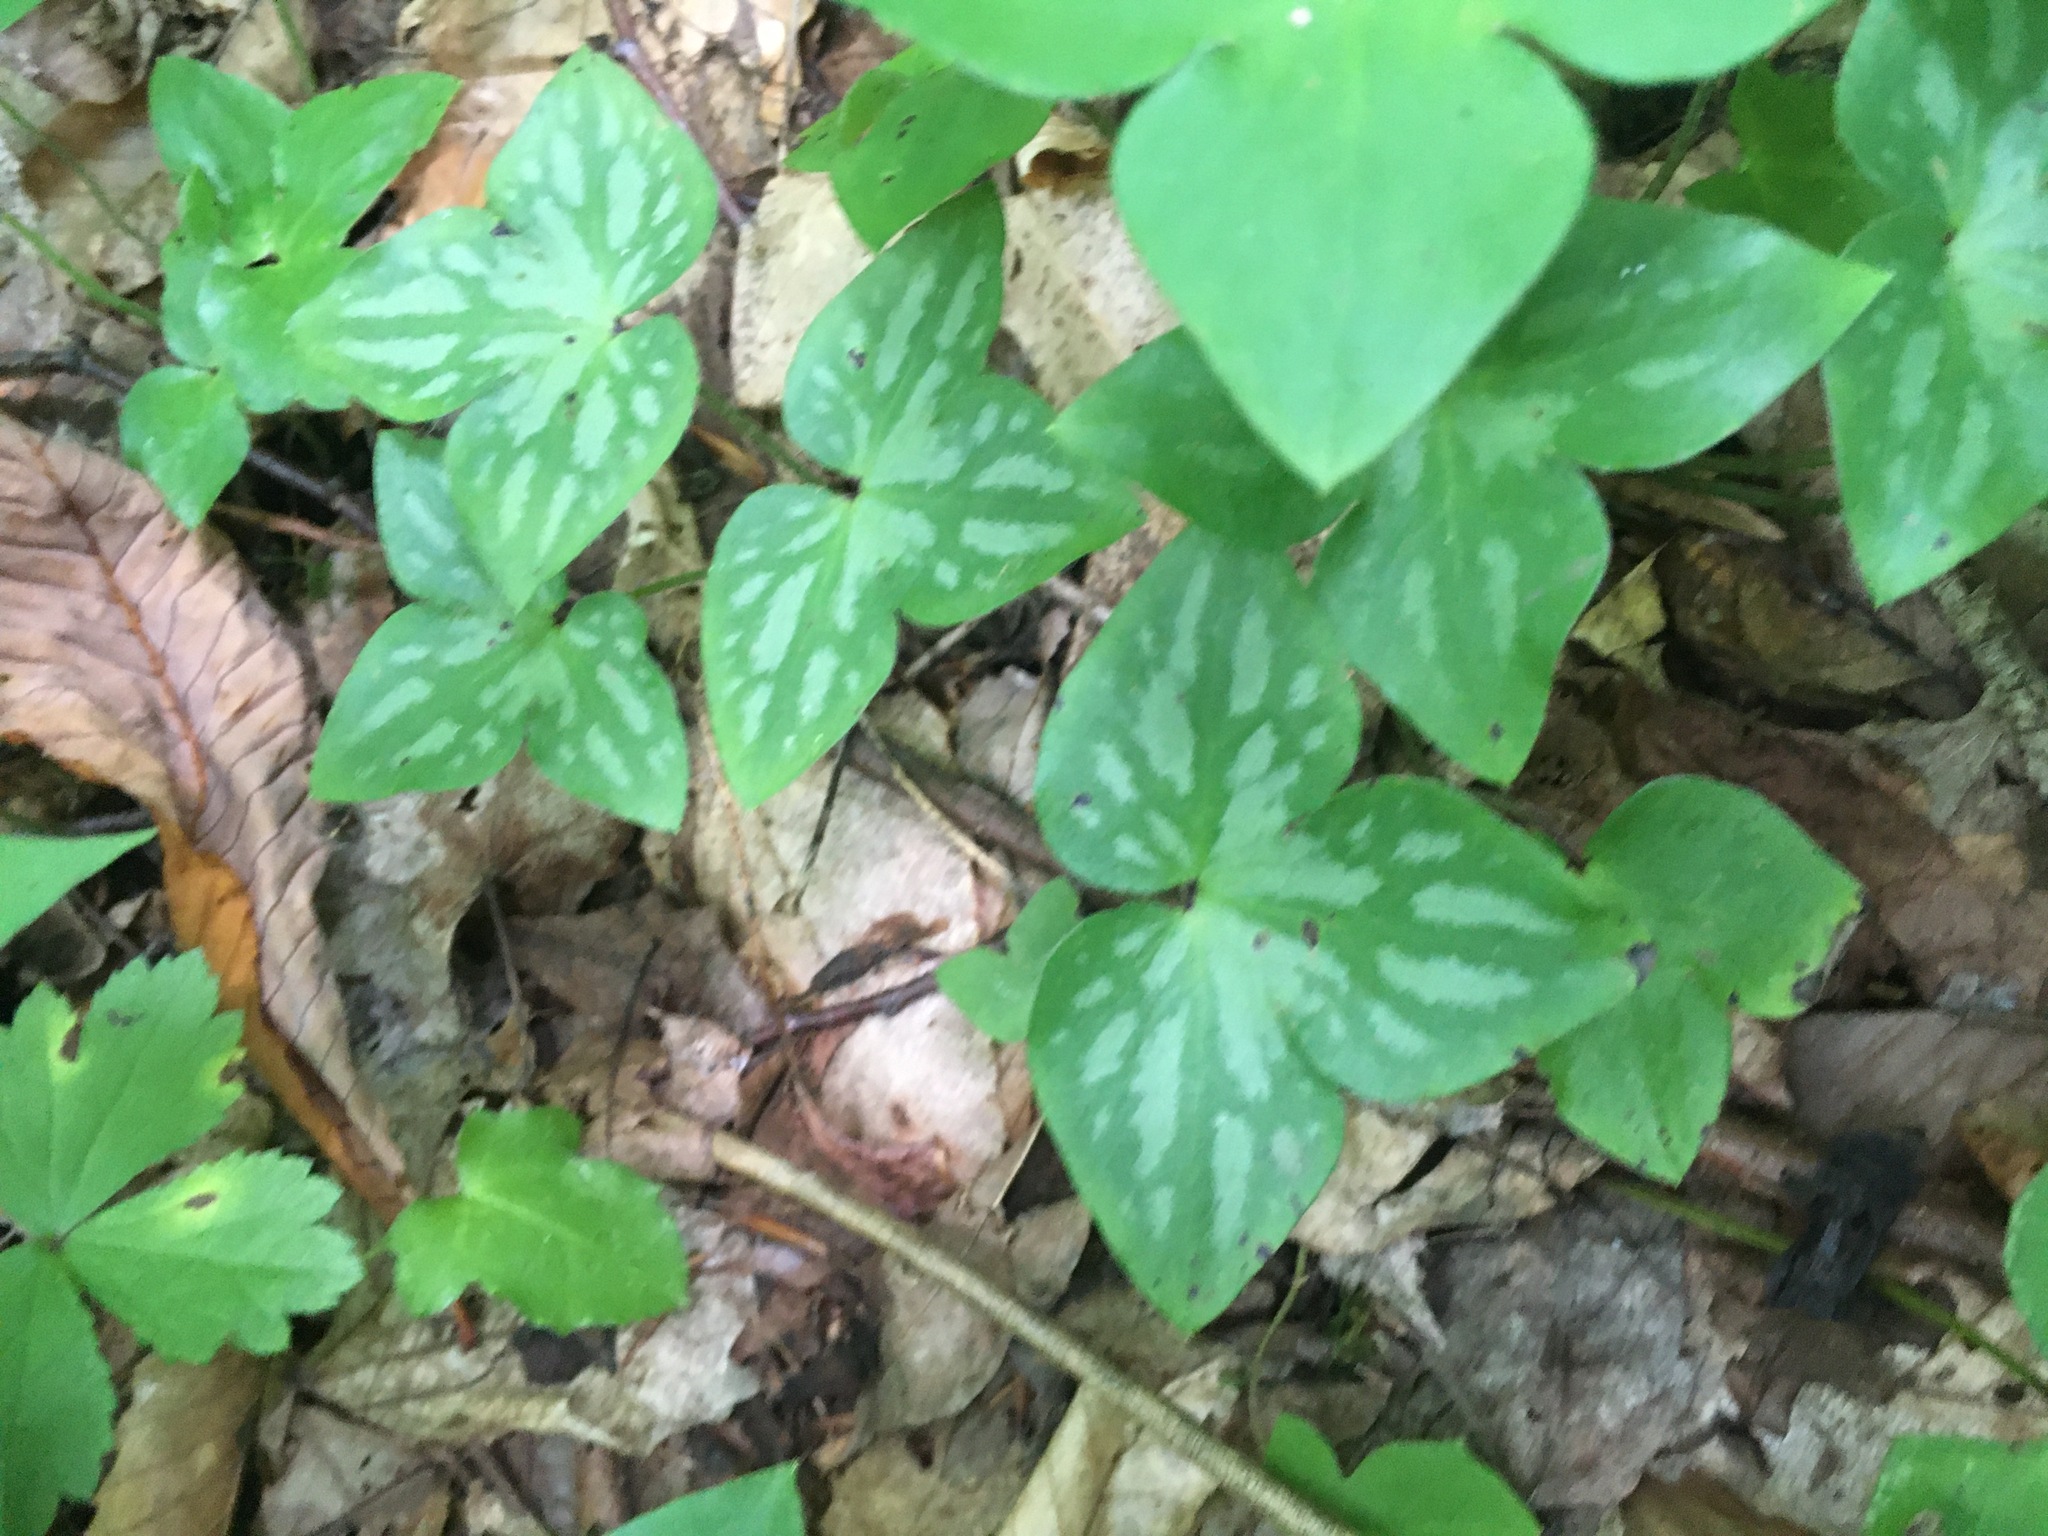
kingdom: Plantae
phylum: Tracheophyta
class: Magnoliopsida
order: Ranunculales
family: Ranunculaceae
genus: Hepatica
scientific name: Hepatica acutiloba
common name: Sharp-lobed hepatica
